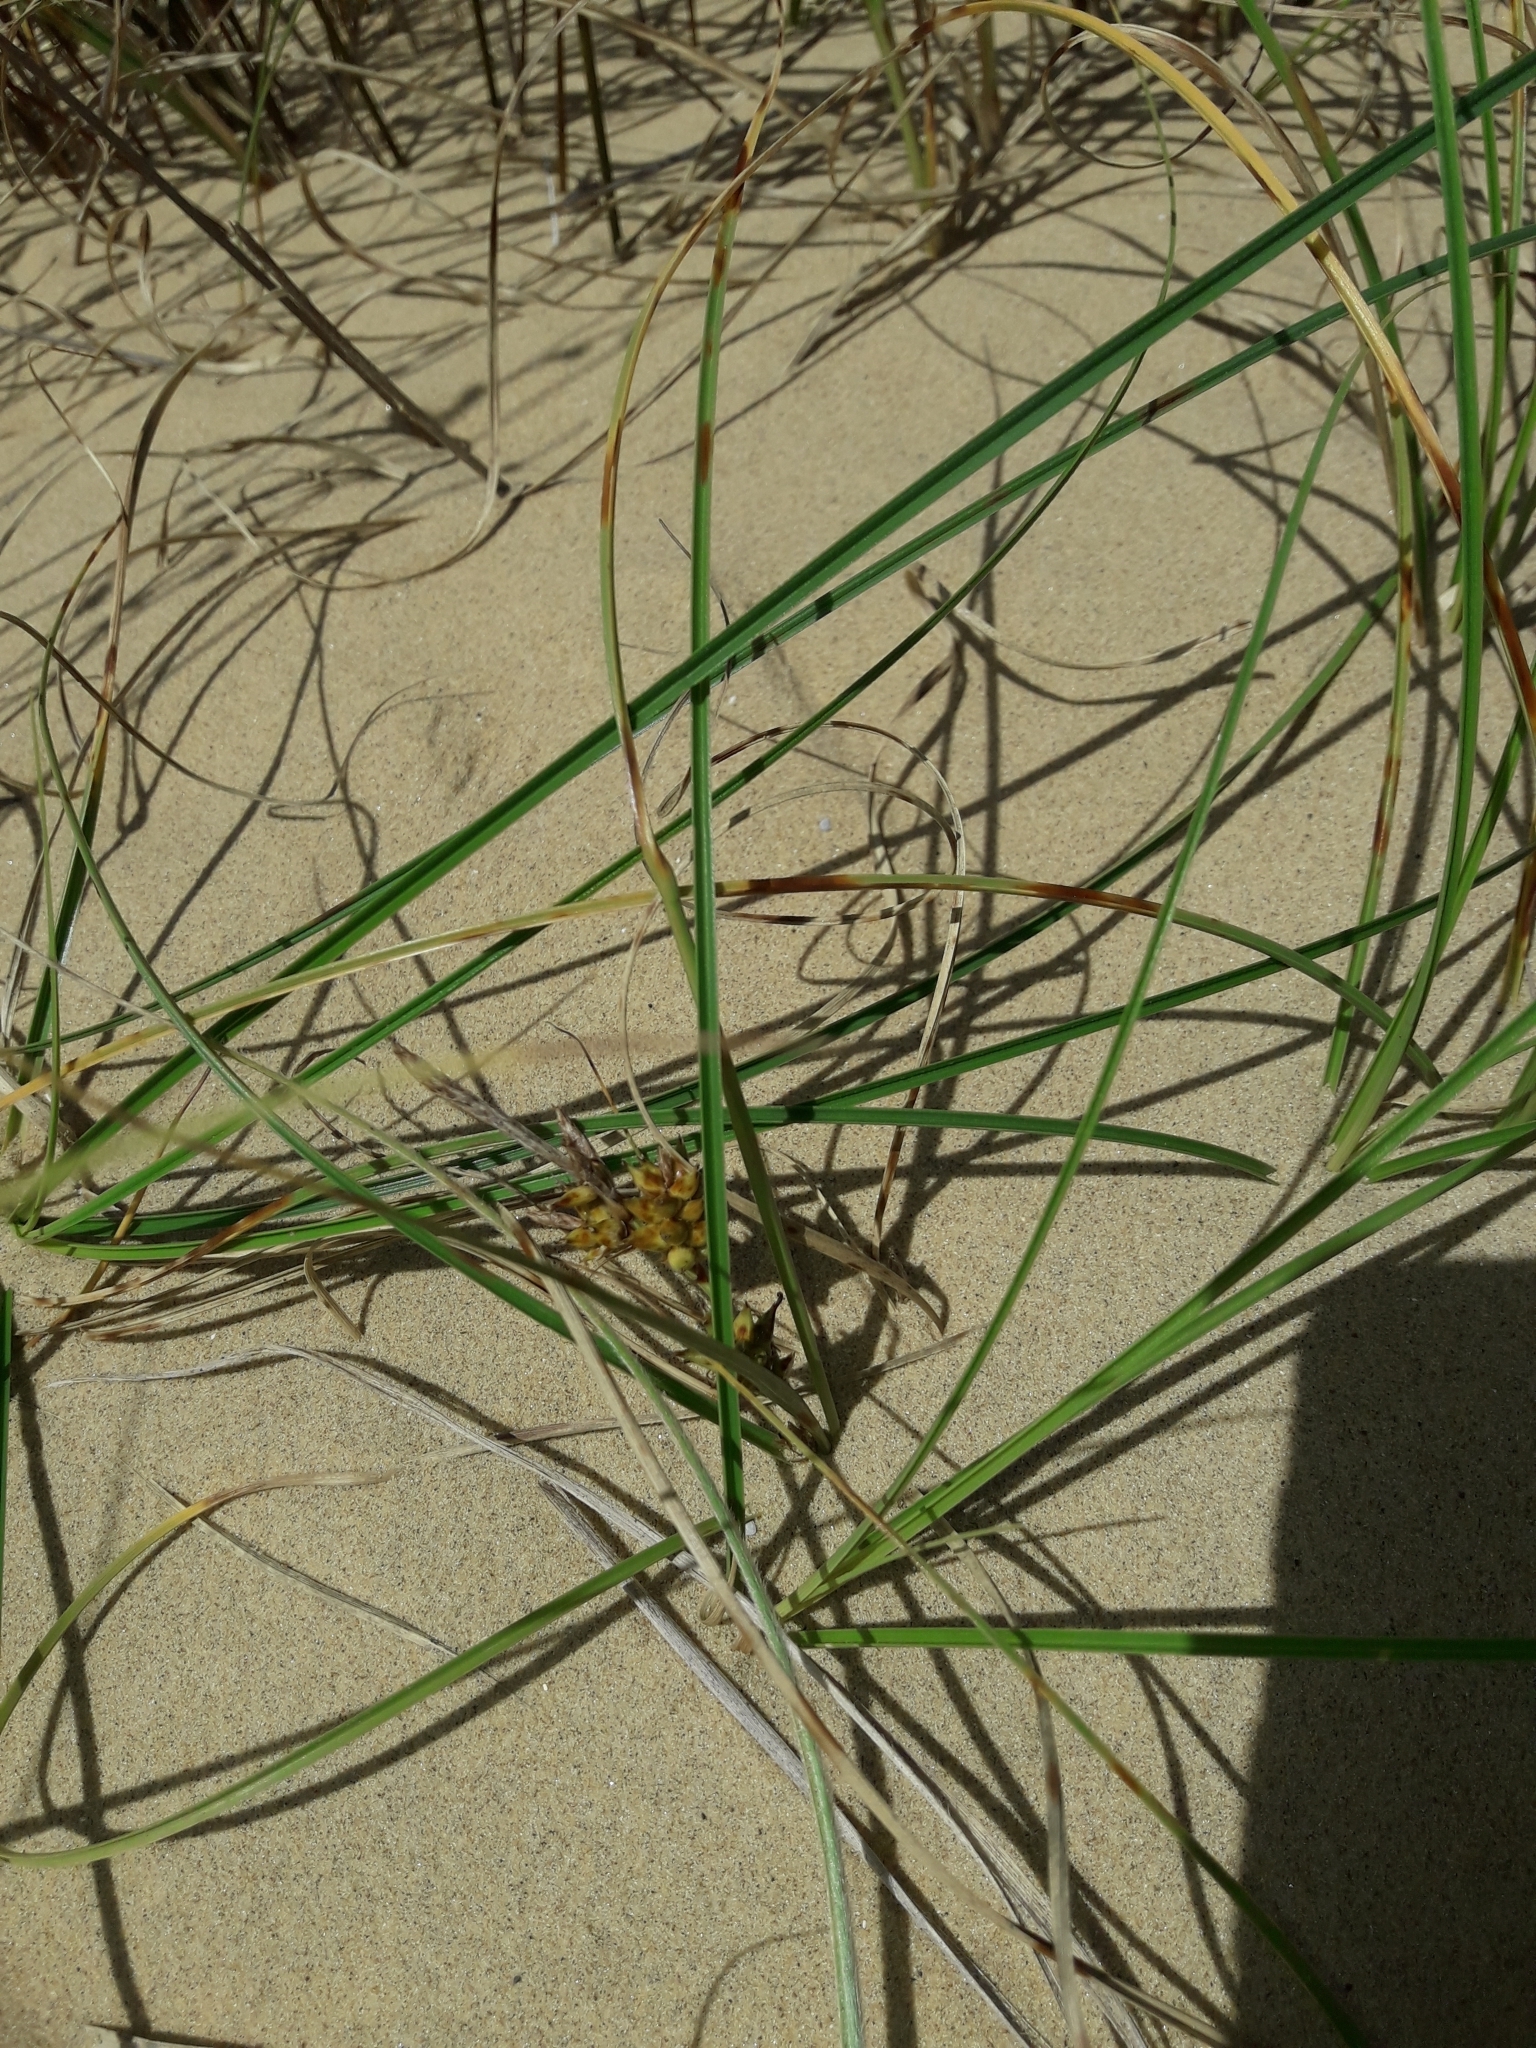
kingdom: Plantae
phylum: Tracheophyta
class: Liliopsida
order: Poales
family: Cyperaceae
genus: Carex
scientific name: Carex pumila
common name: Dwarf sedge
